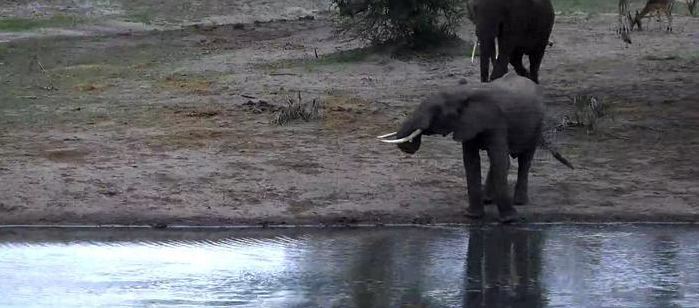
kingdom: Animalia
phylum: Chordata
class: Mammalia
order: Proboscidea
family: Elephantidae
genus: Loxodonta
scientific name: Loxodonta africana
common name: African elephant
